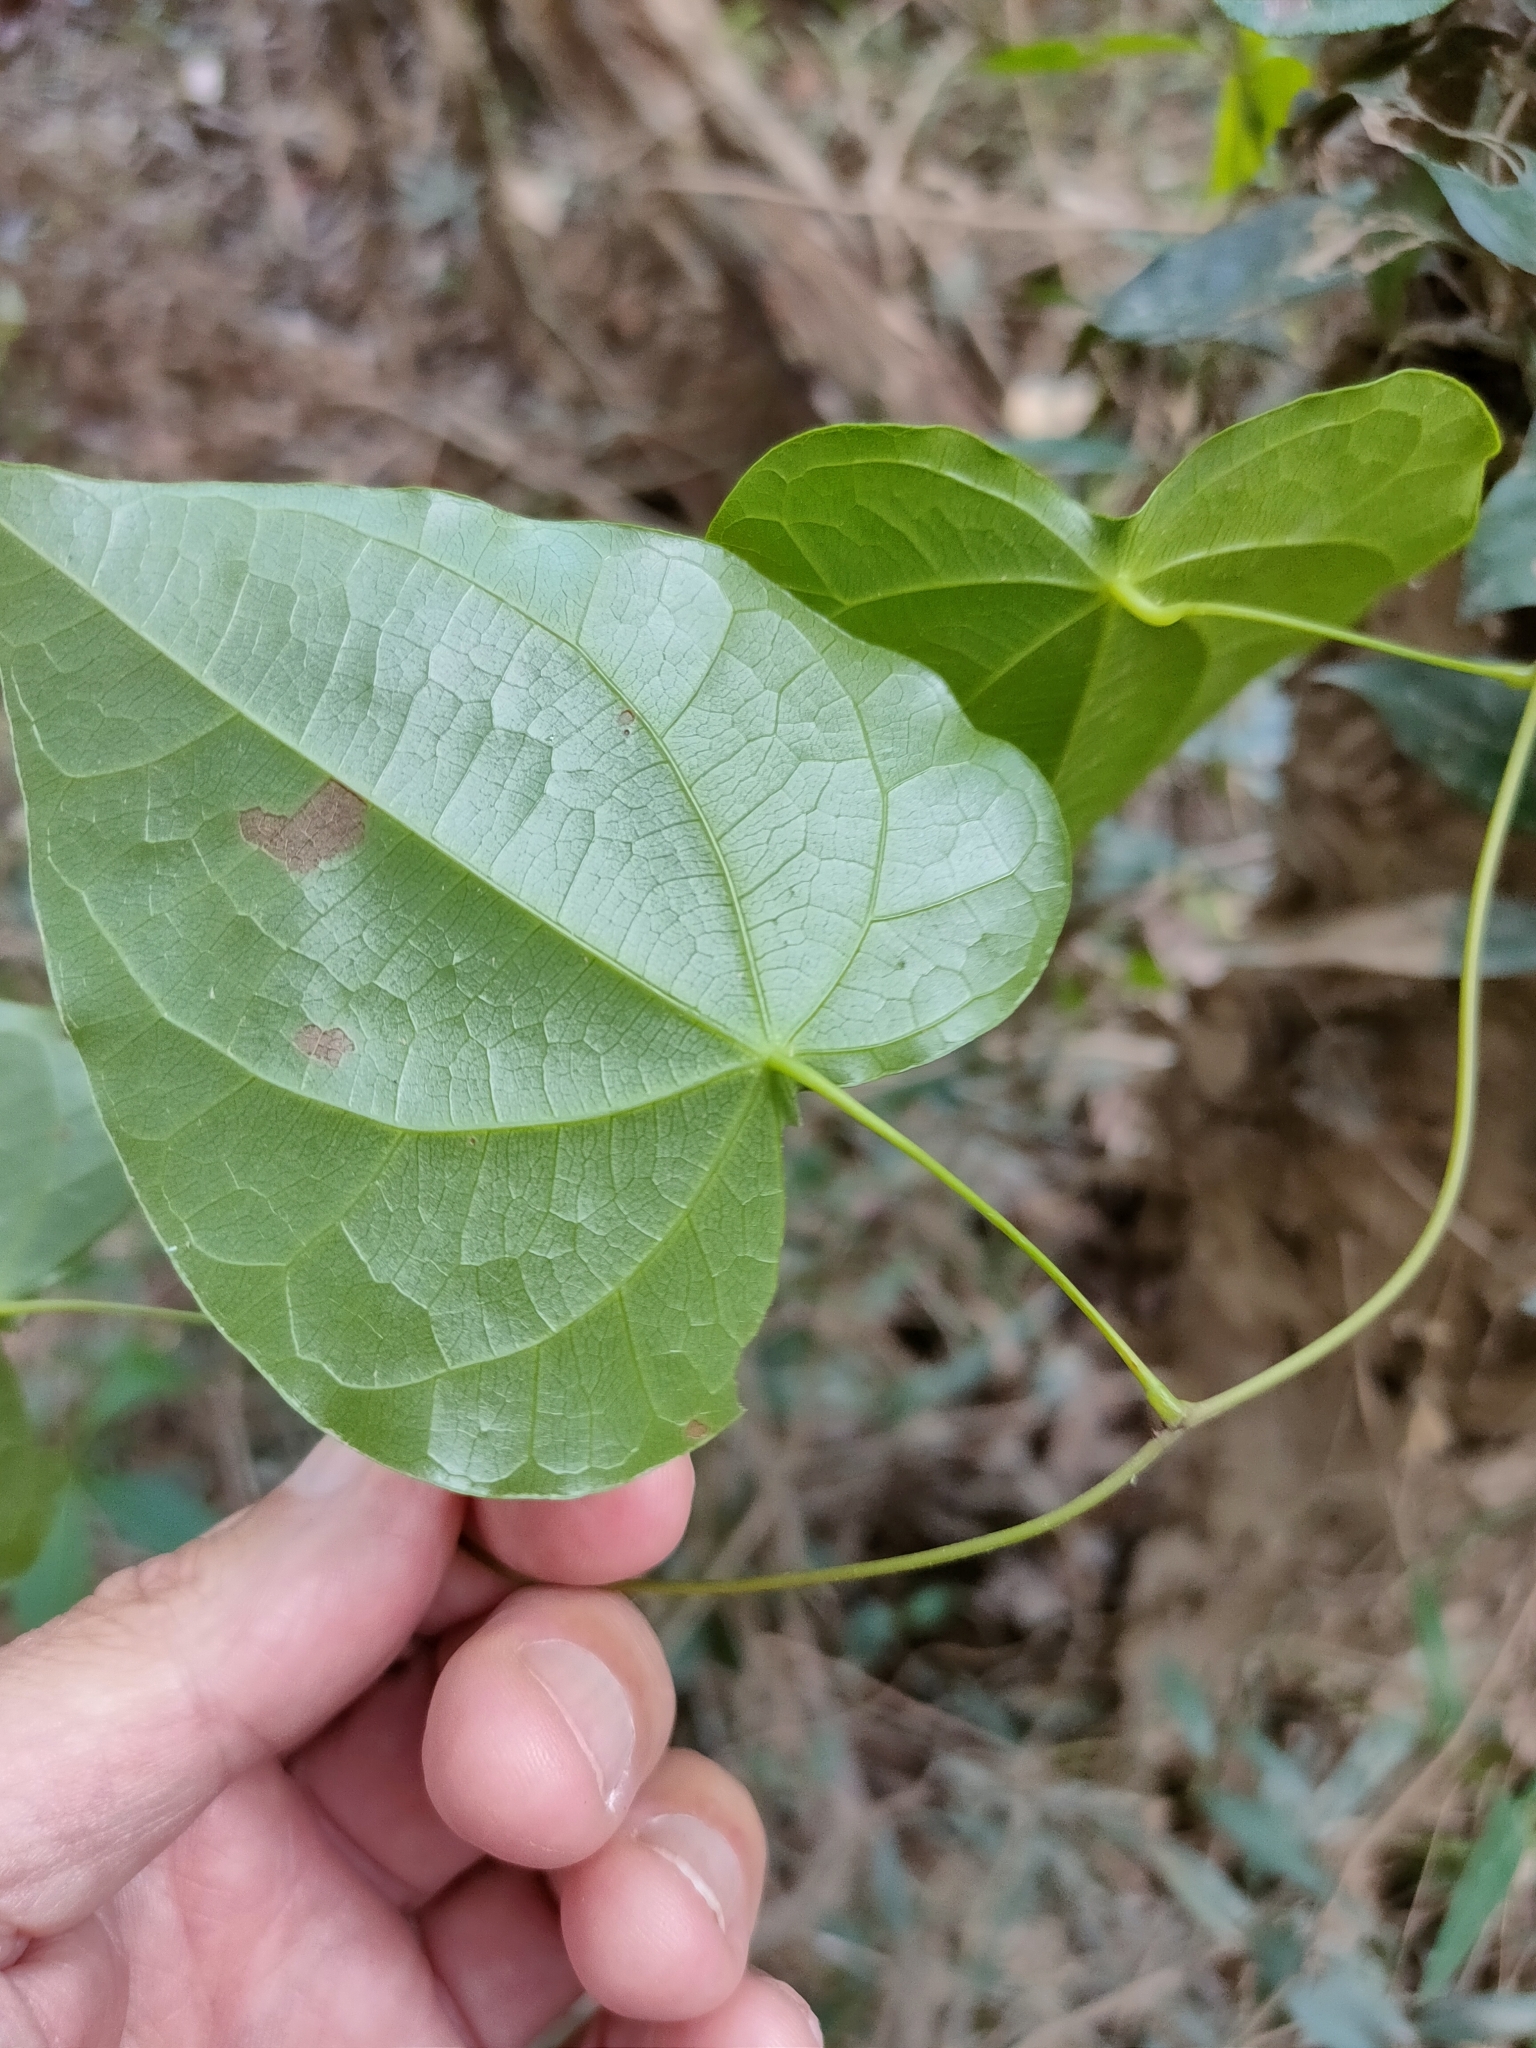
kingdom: Plantae
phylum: Tracheophyta
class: Magnoliopsida
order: Ranunculales
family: Menispermaceae
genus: Sarcopetalum
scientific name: Sarcopetalum harveyanum
